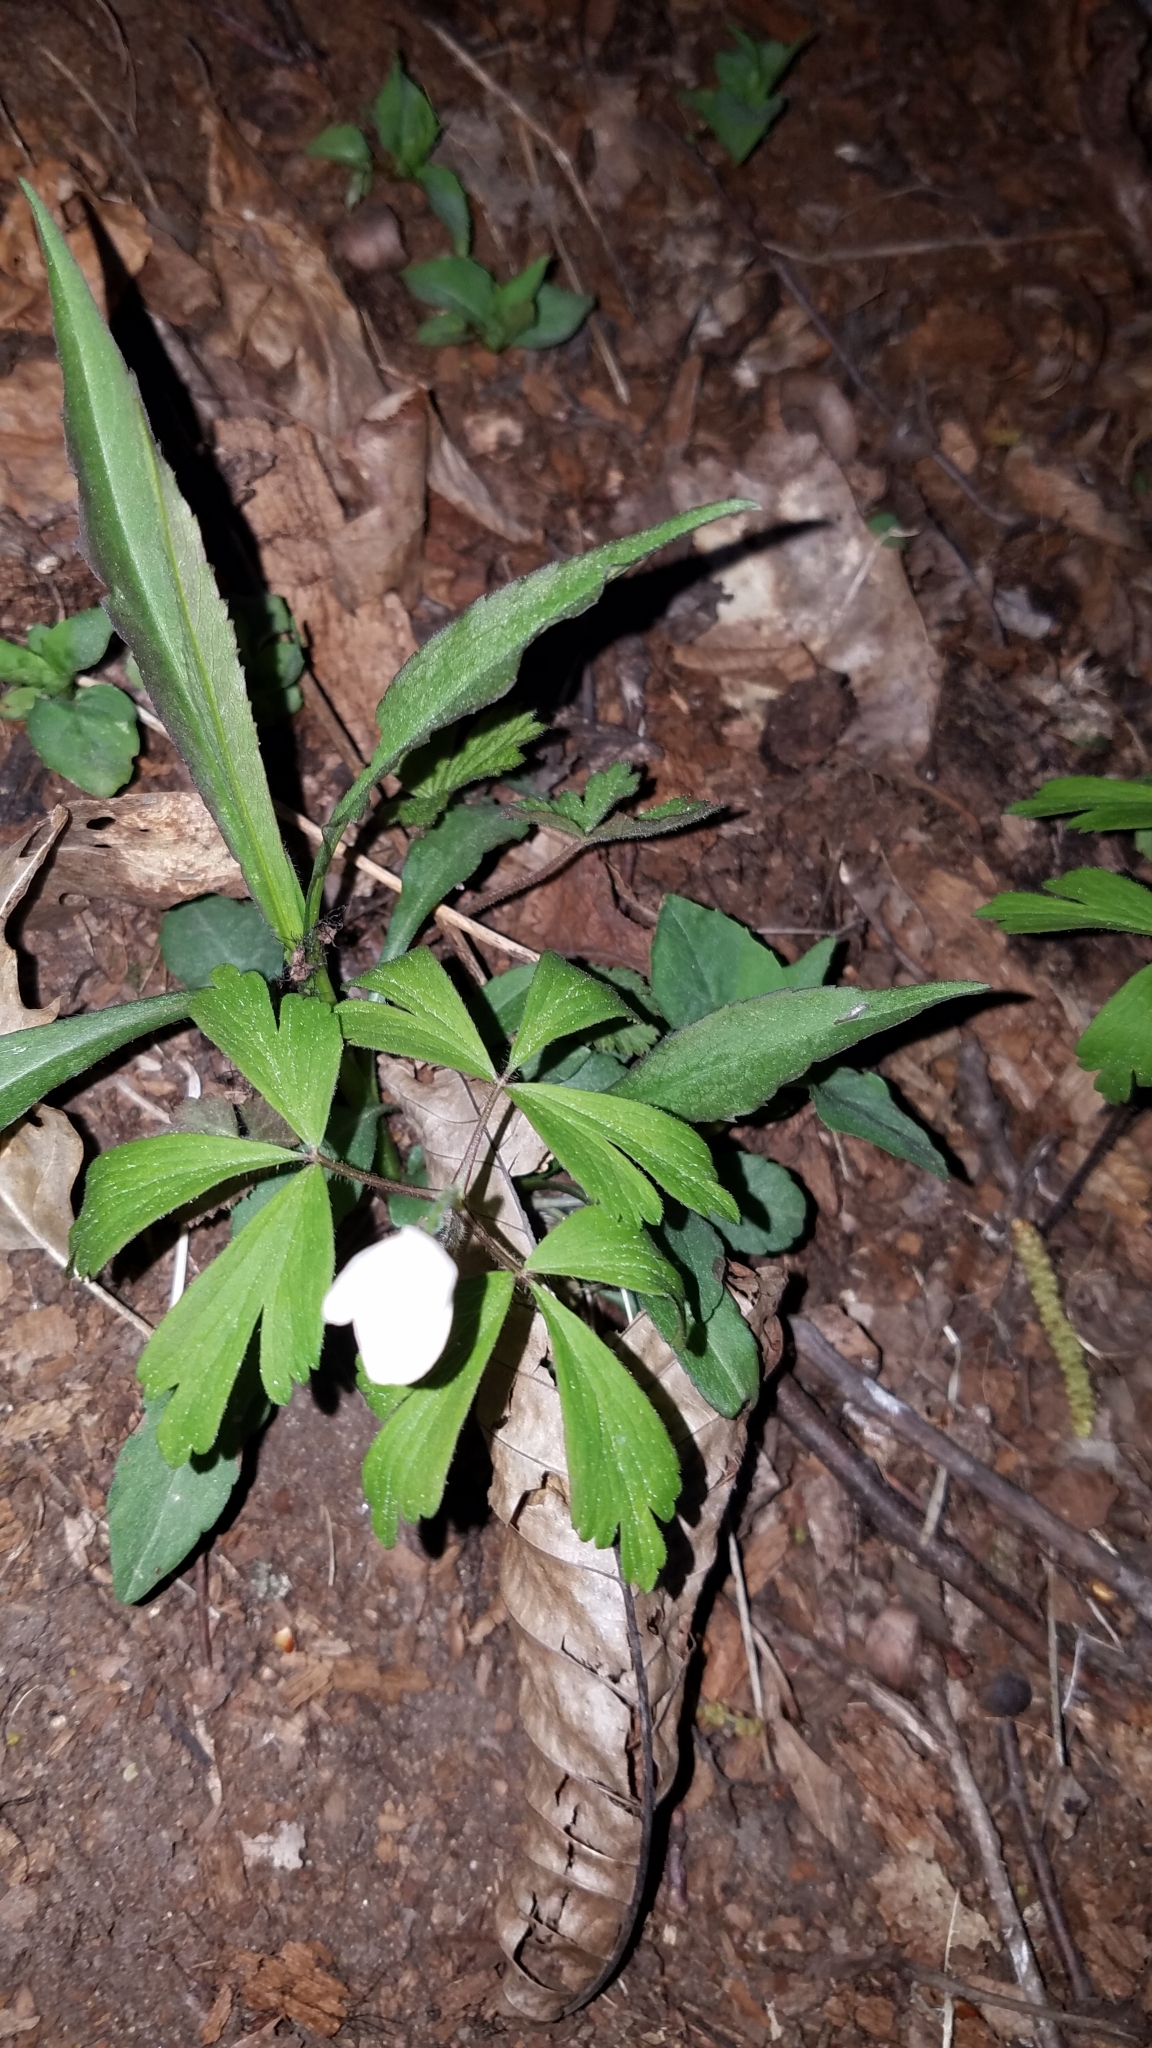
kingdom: Plantae
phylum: Tracheophyta
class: Magnoliopsida
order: Ranunculales
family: Ranunculaceae
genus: Anemone
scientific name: Anemone quinquefolia
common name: Wood anemone
